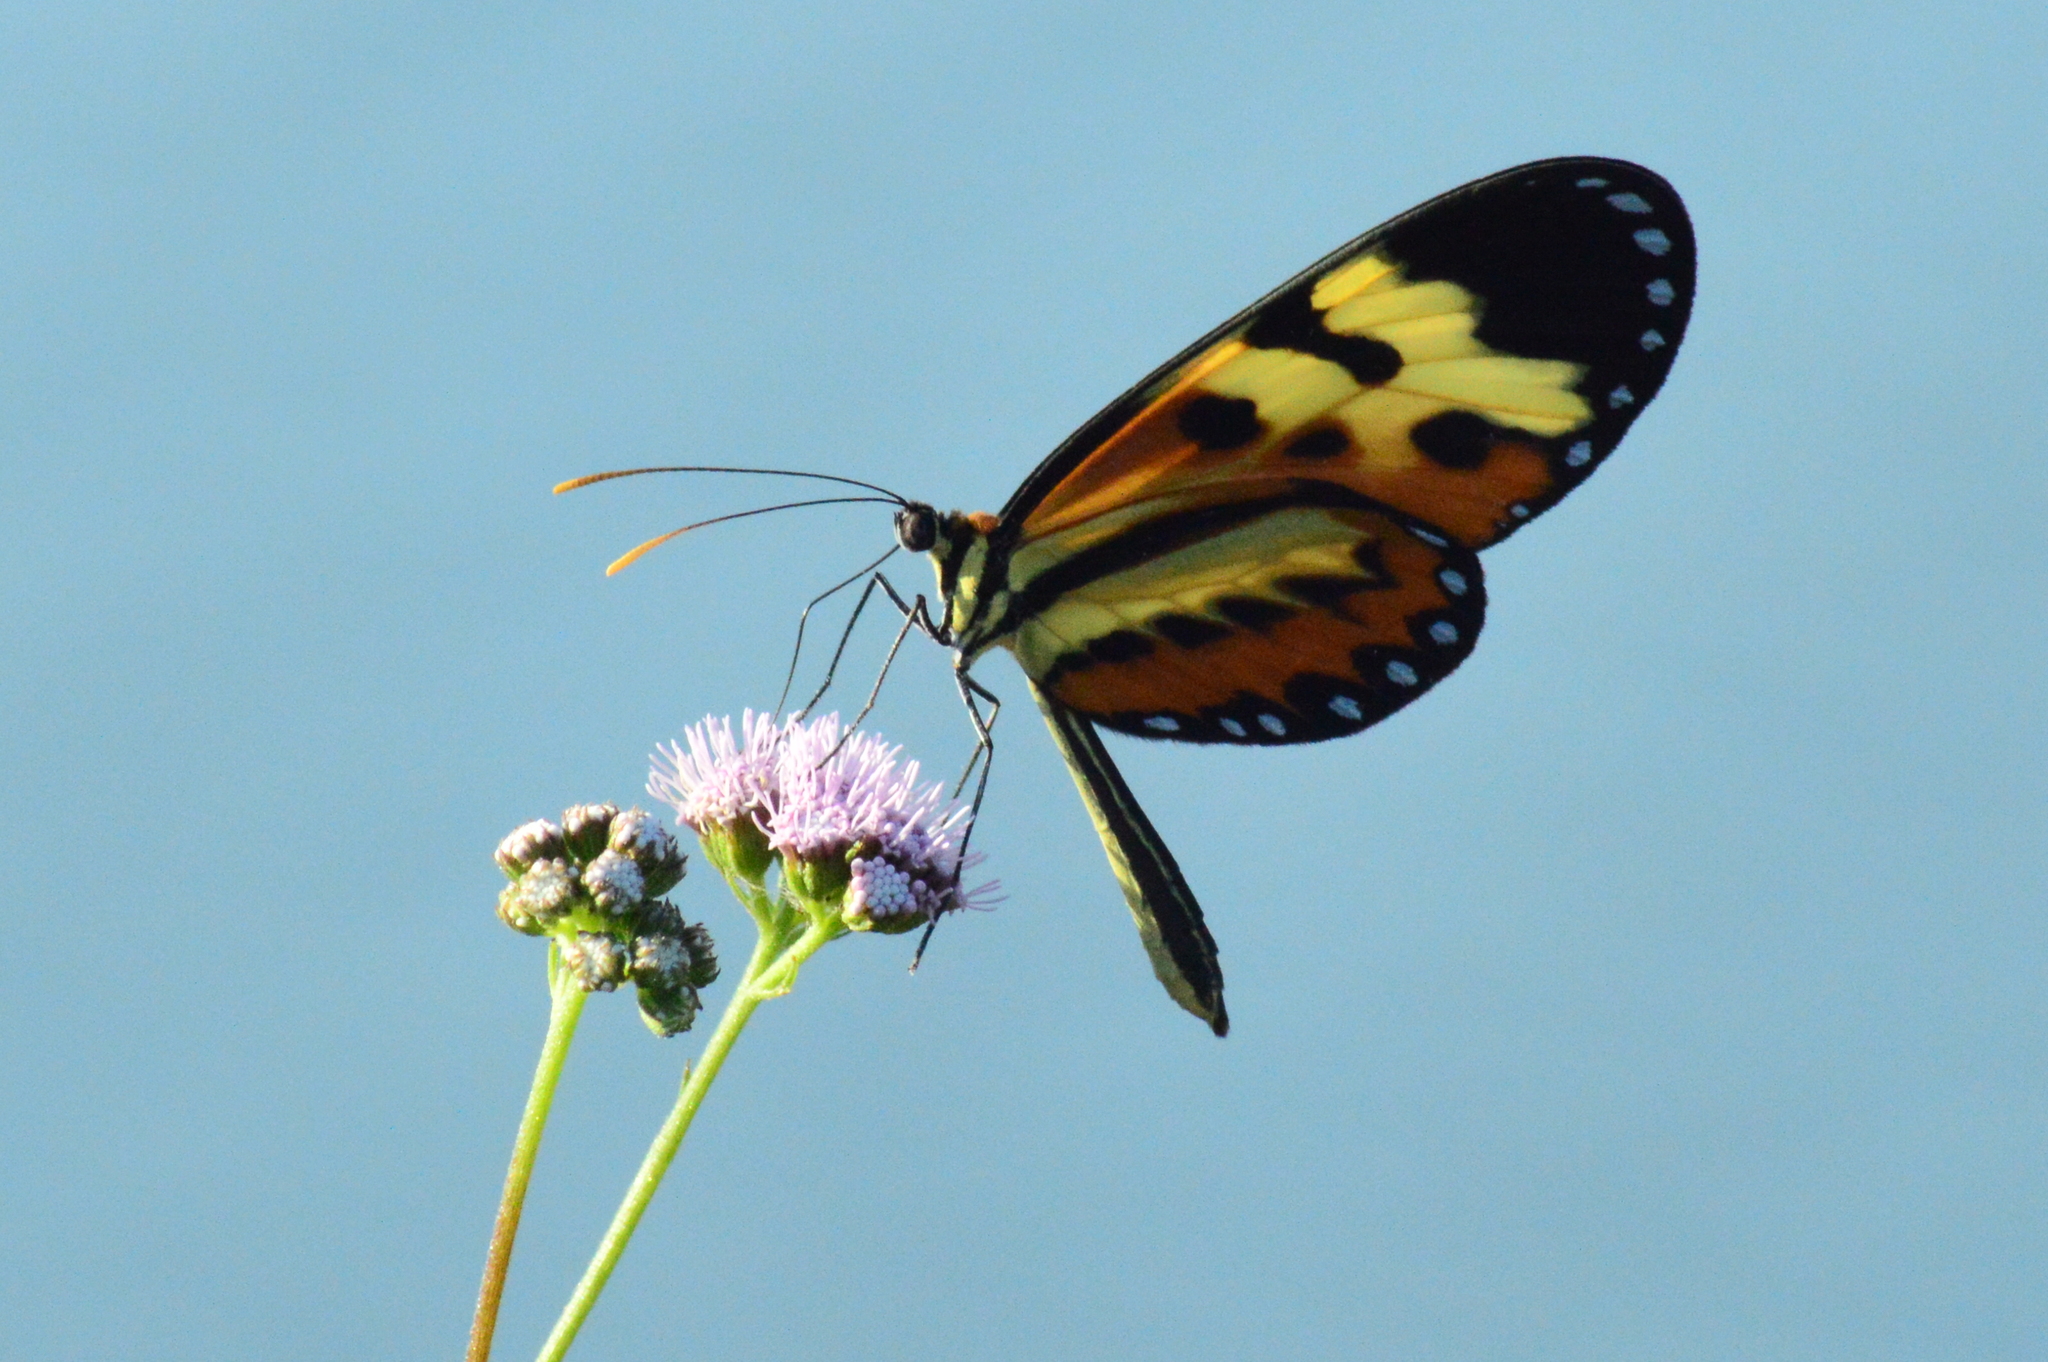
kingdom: Animalia
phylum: Arthropoda
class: Insecta
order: Lepidoptera
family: Nymphalidae
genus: Mechanitis
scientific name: Mechanitis polymnia
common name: Disturbed tigerwing
